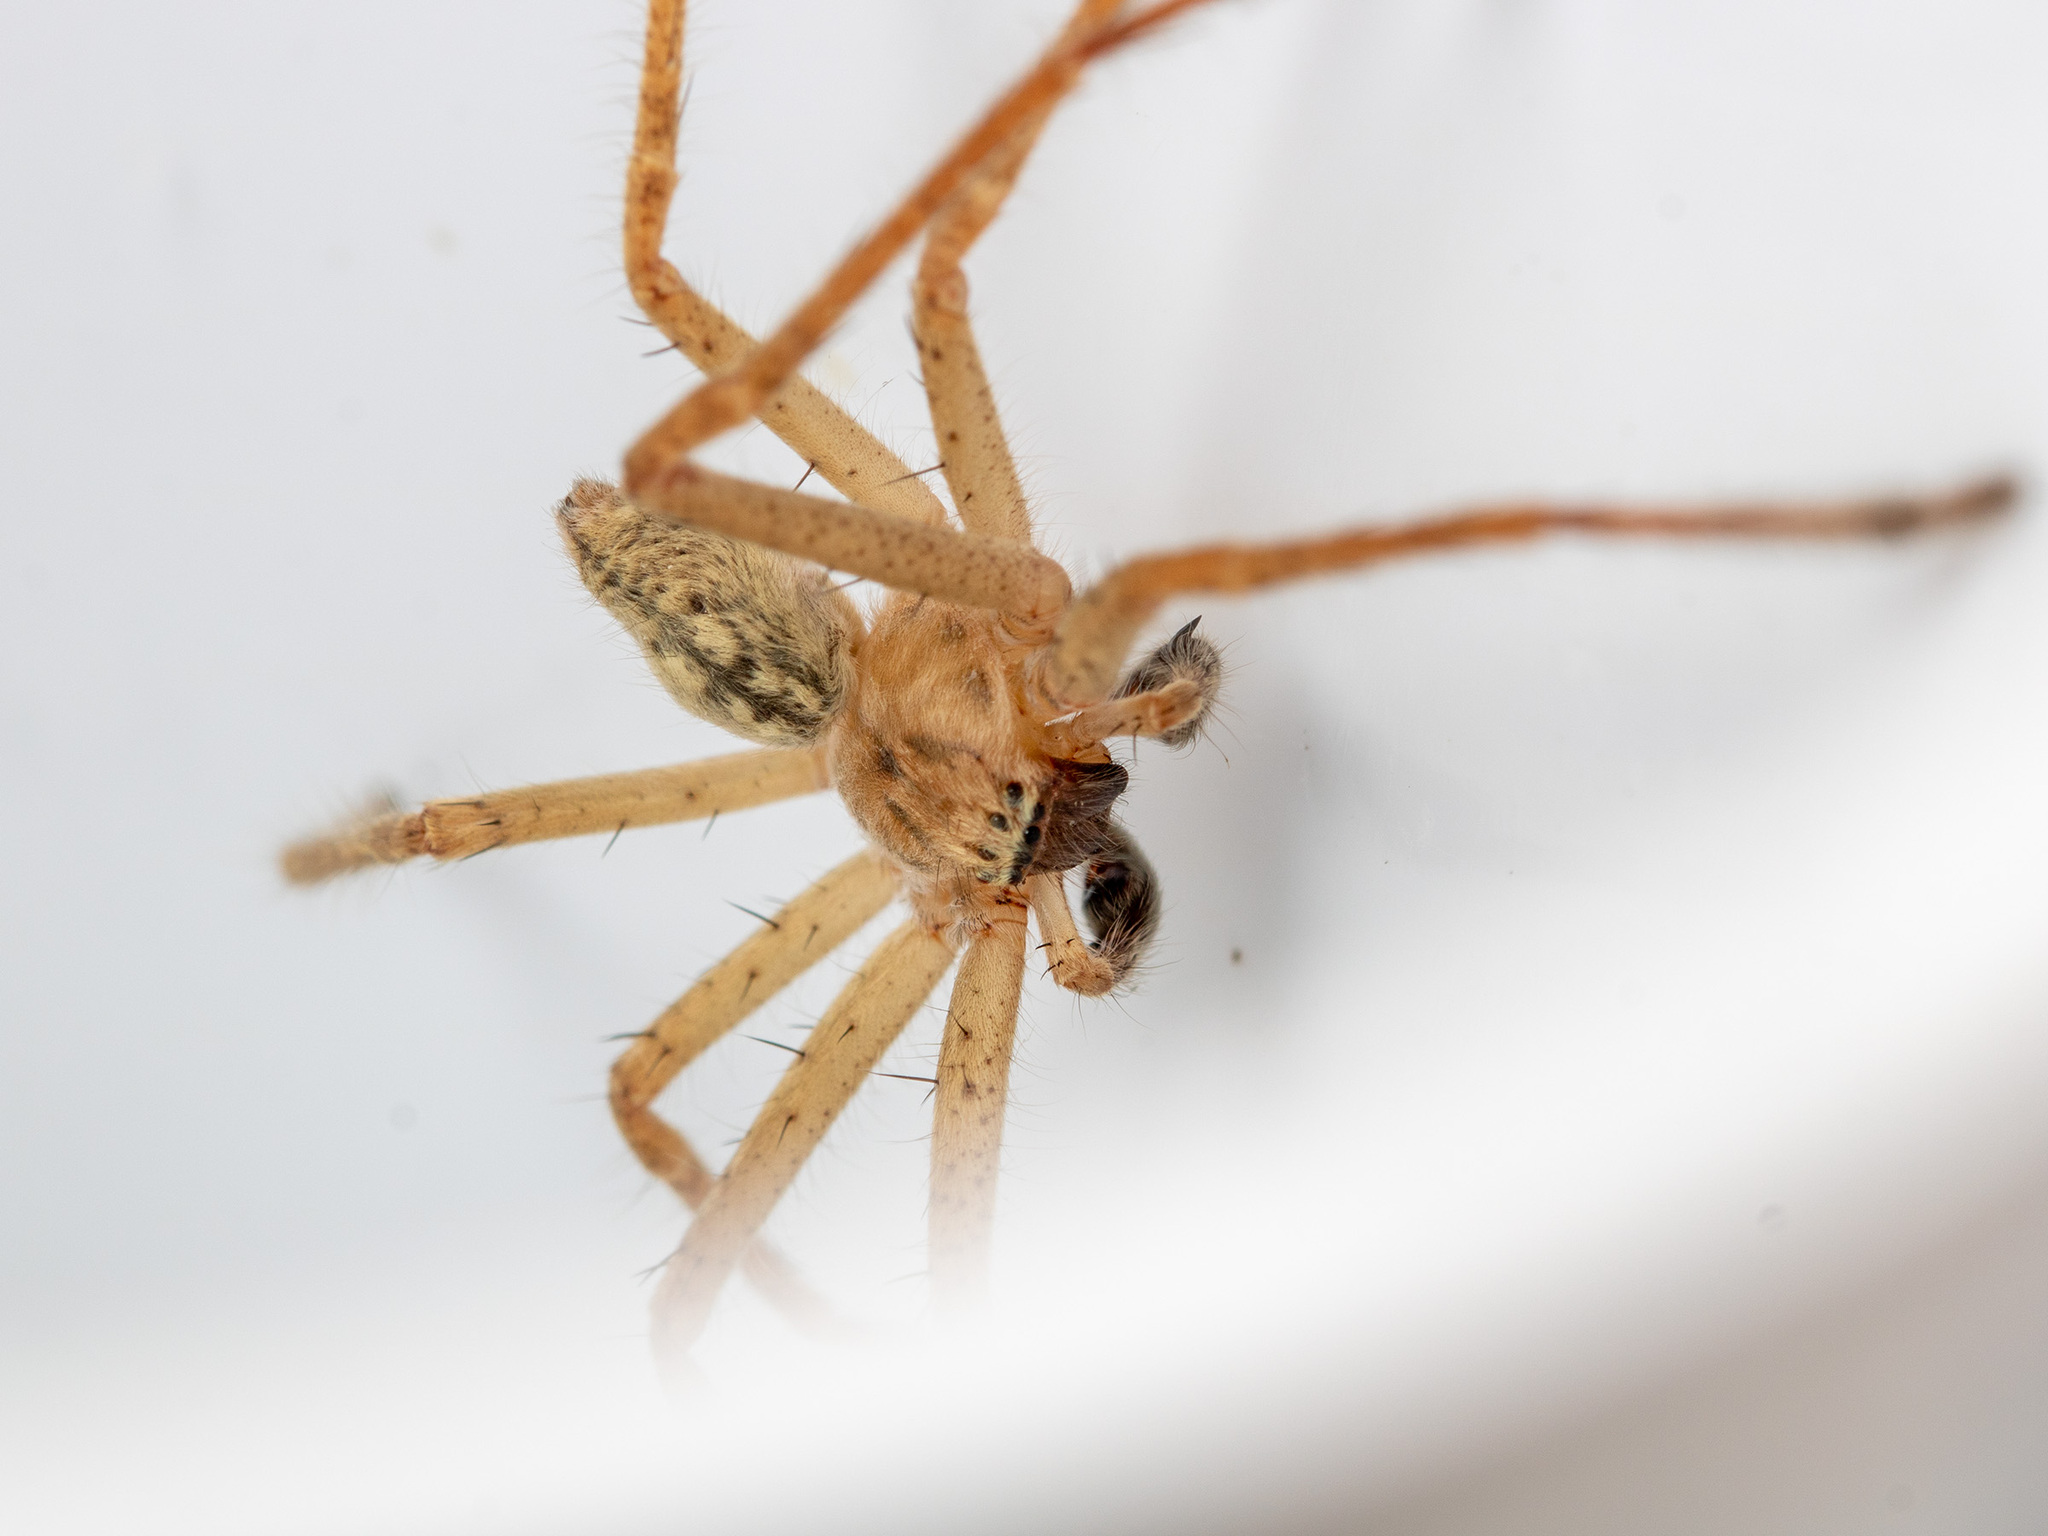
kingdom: Animalia
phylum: Arthropoda
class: Arachnida
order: Araneae
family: Sparassidae
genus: Olios
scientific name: Olios sericeus
